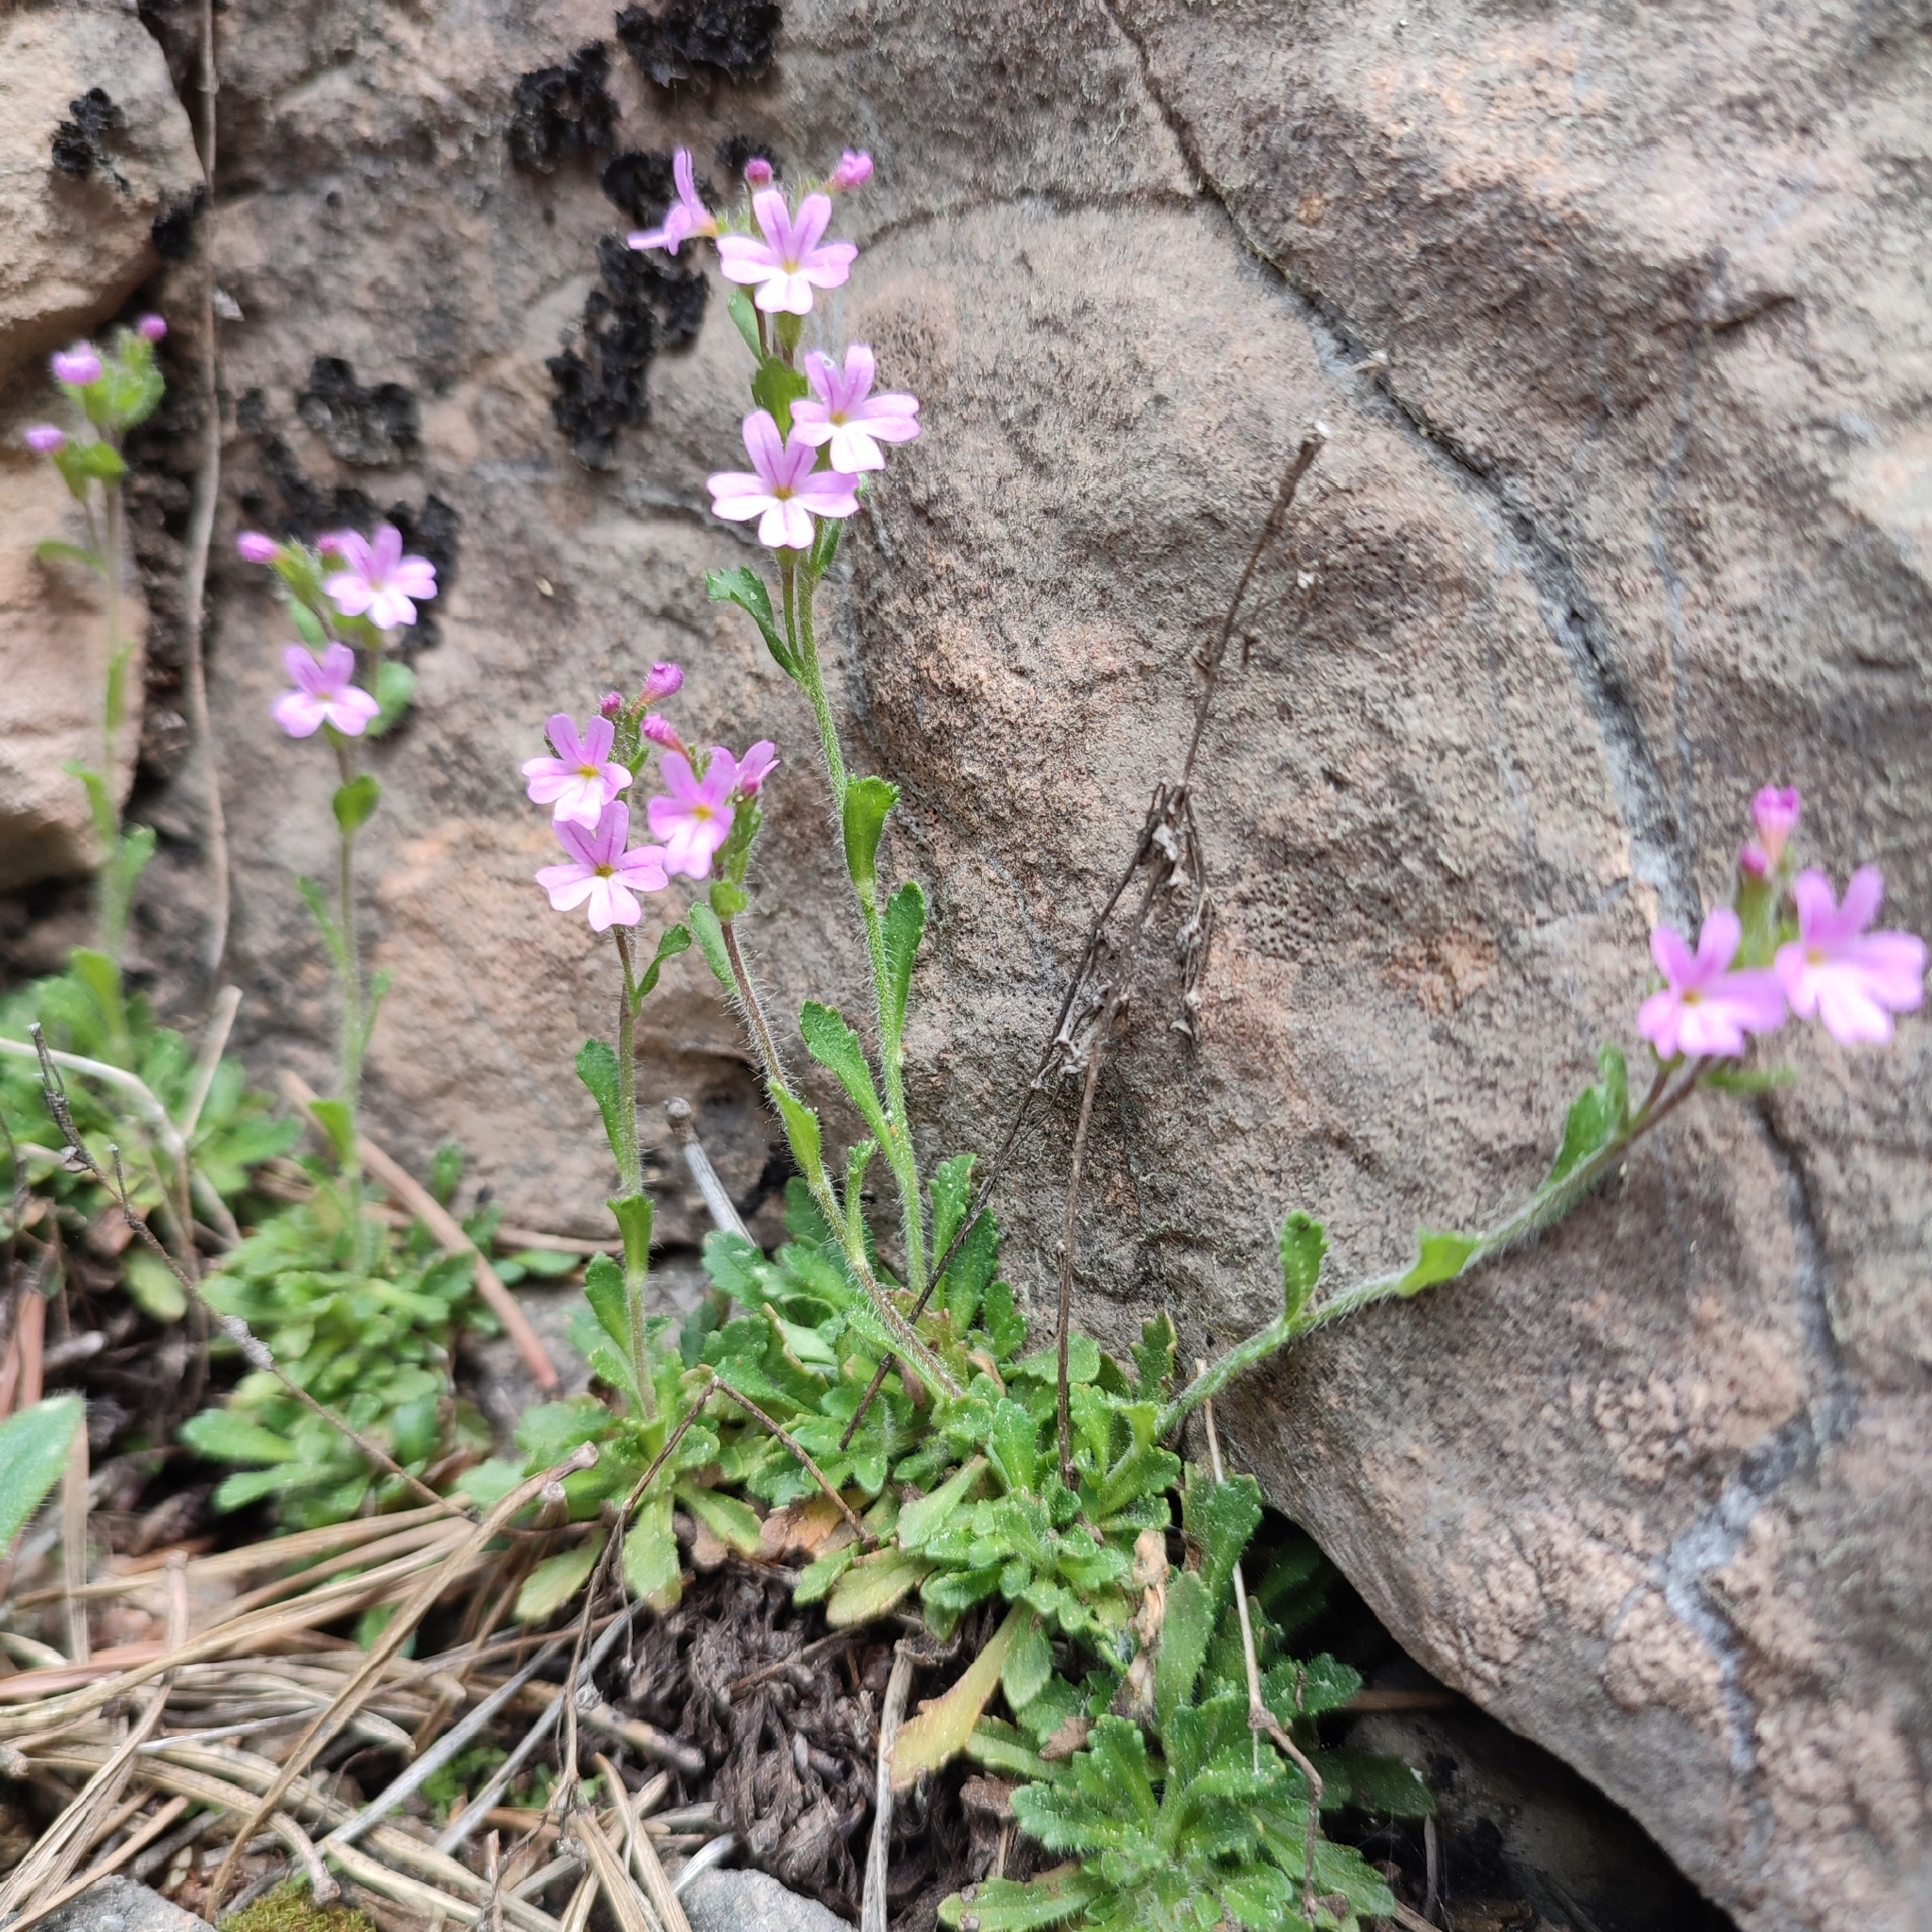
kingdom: Plantae
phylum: Tracheophyta
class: Magnoliopsida
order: Lamiales
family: Plantaginaceae
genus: Erinus
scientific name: Erinus alpinus
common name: Fairy foxglove
